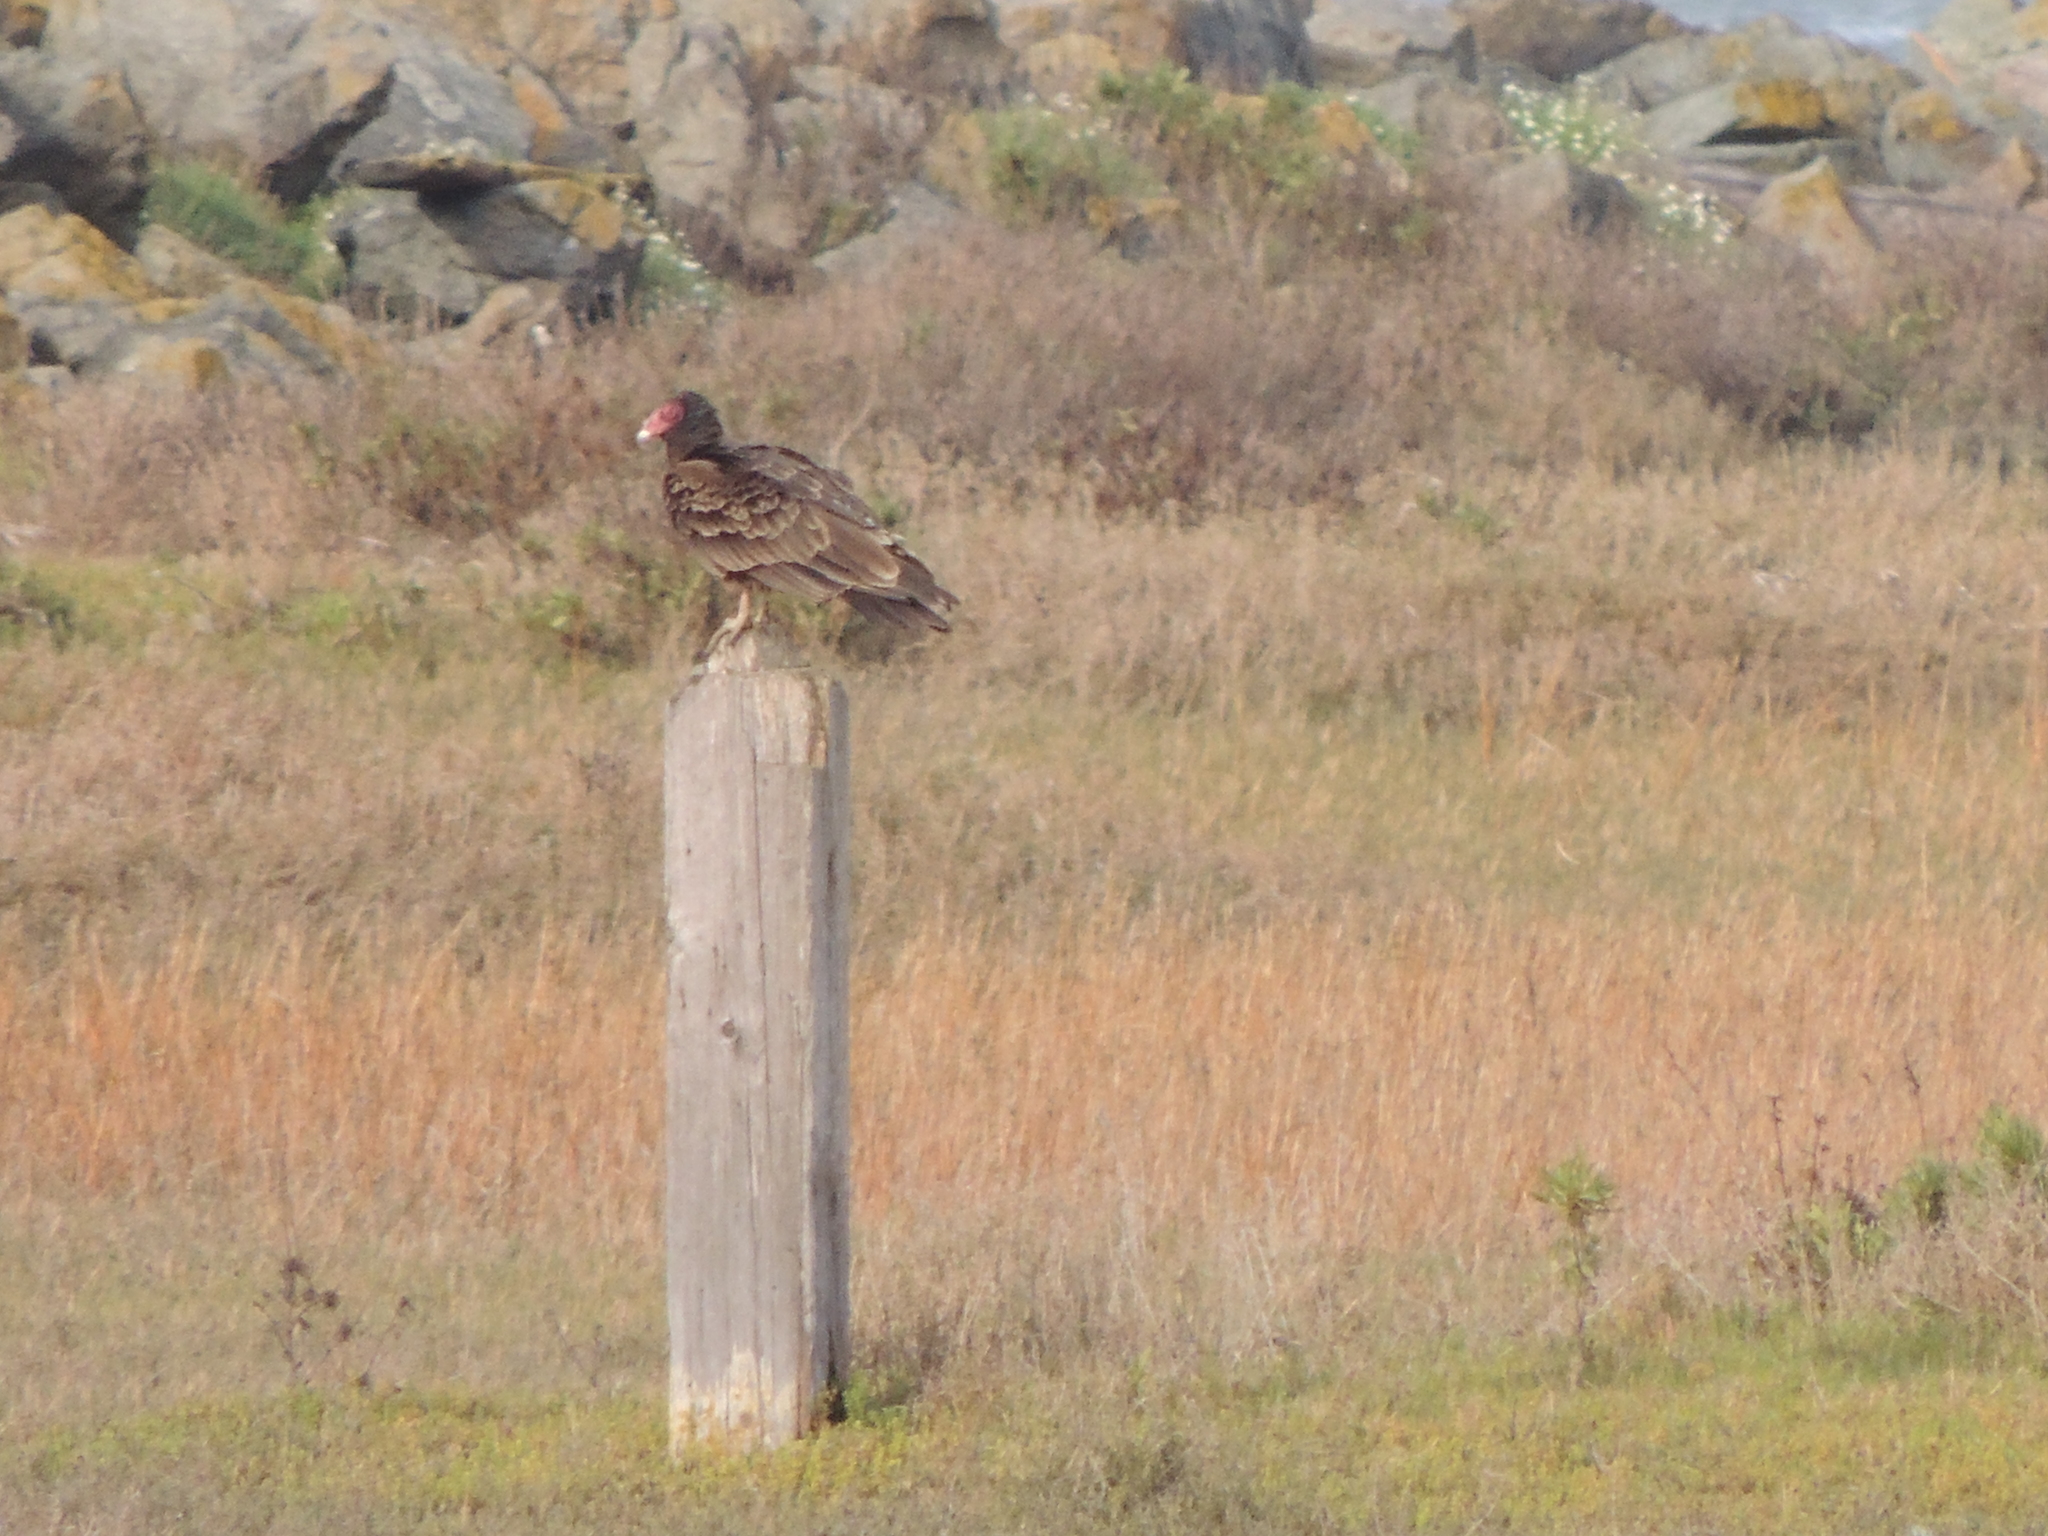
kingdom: Animalia
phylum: Chordata
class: Aves
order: Accipitriformes
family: Cathartidae
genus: Cathartes
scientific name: Cathartes aura
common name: Turkey vulture
